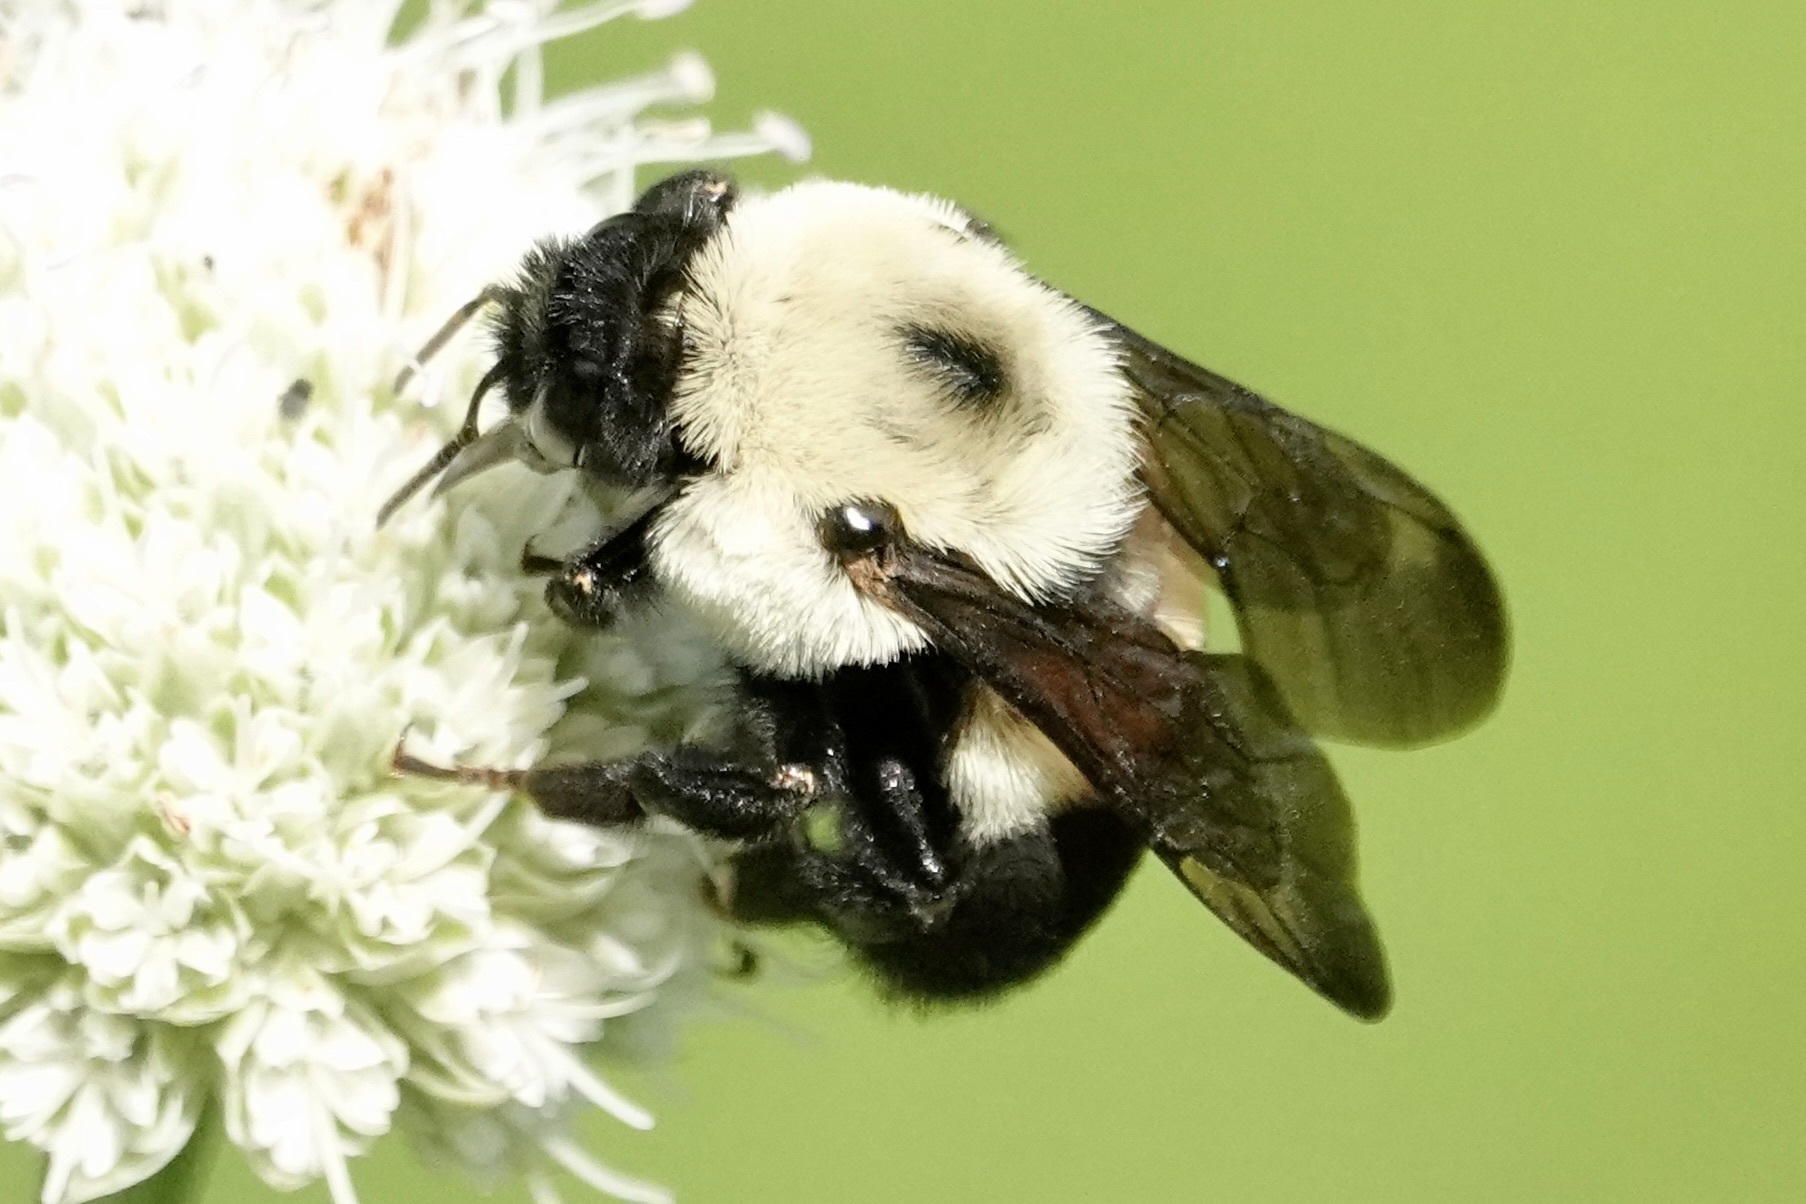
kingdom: Animalia
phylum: Arthropoda
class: Insecta
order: Hymenoptera
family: Apidae
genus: Bombus
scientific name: Bombus griseocollis
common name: Brown-belted bumble bee
